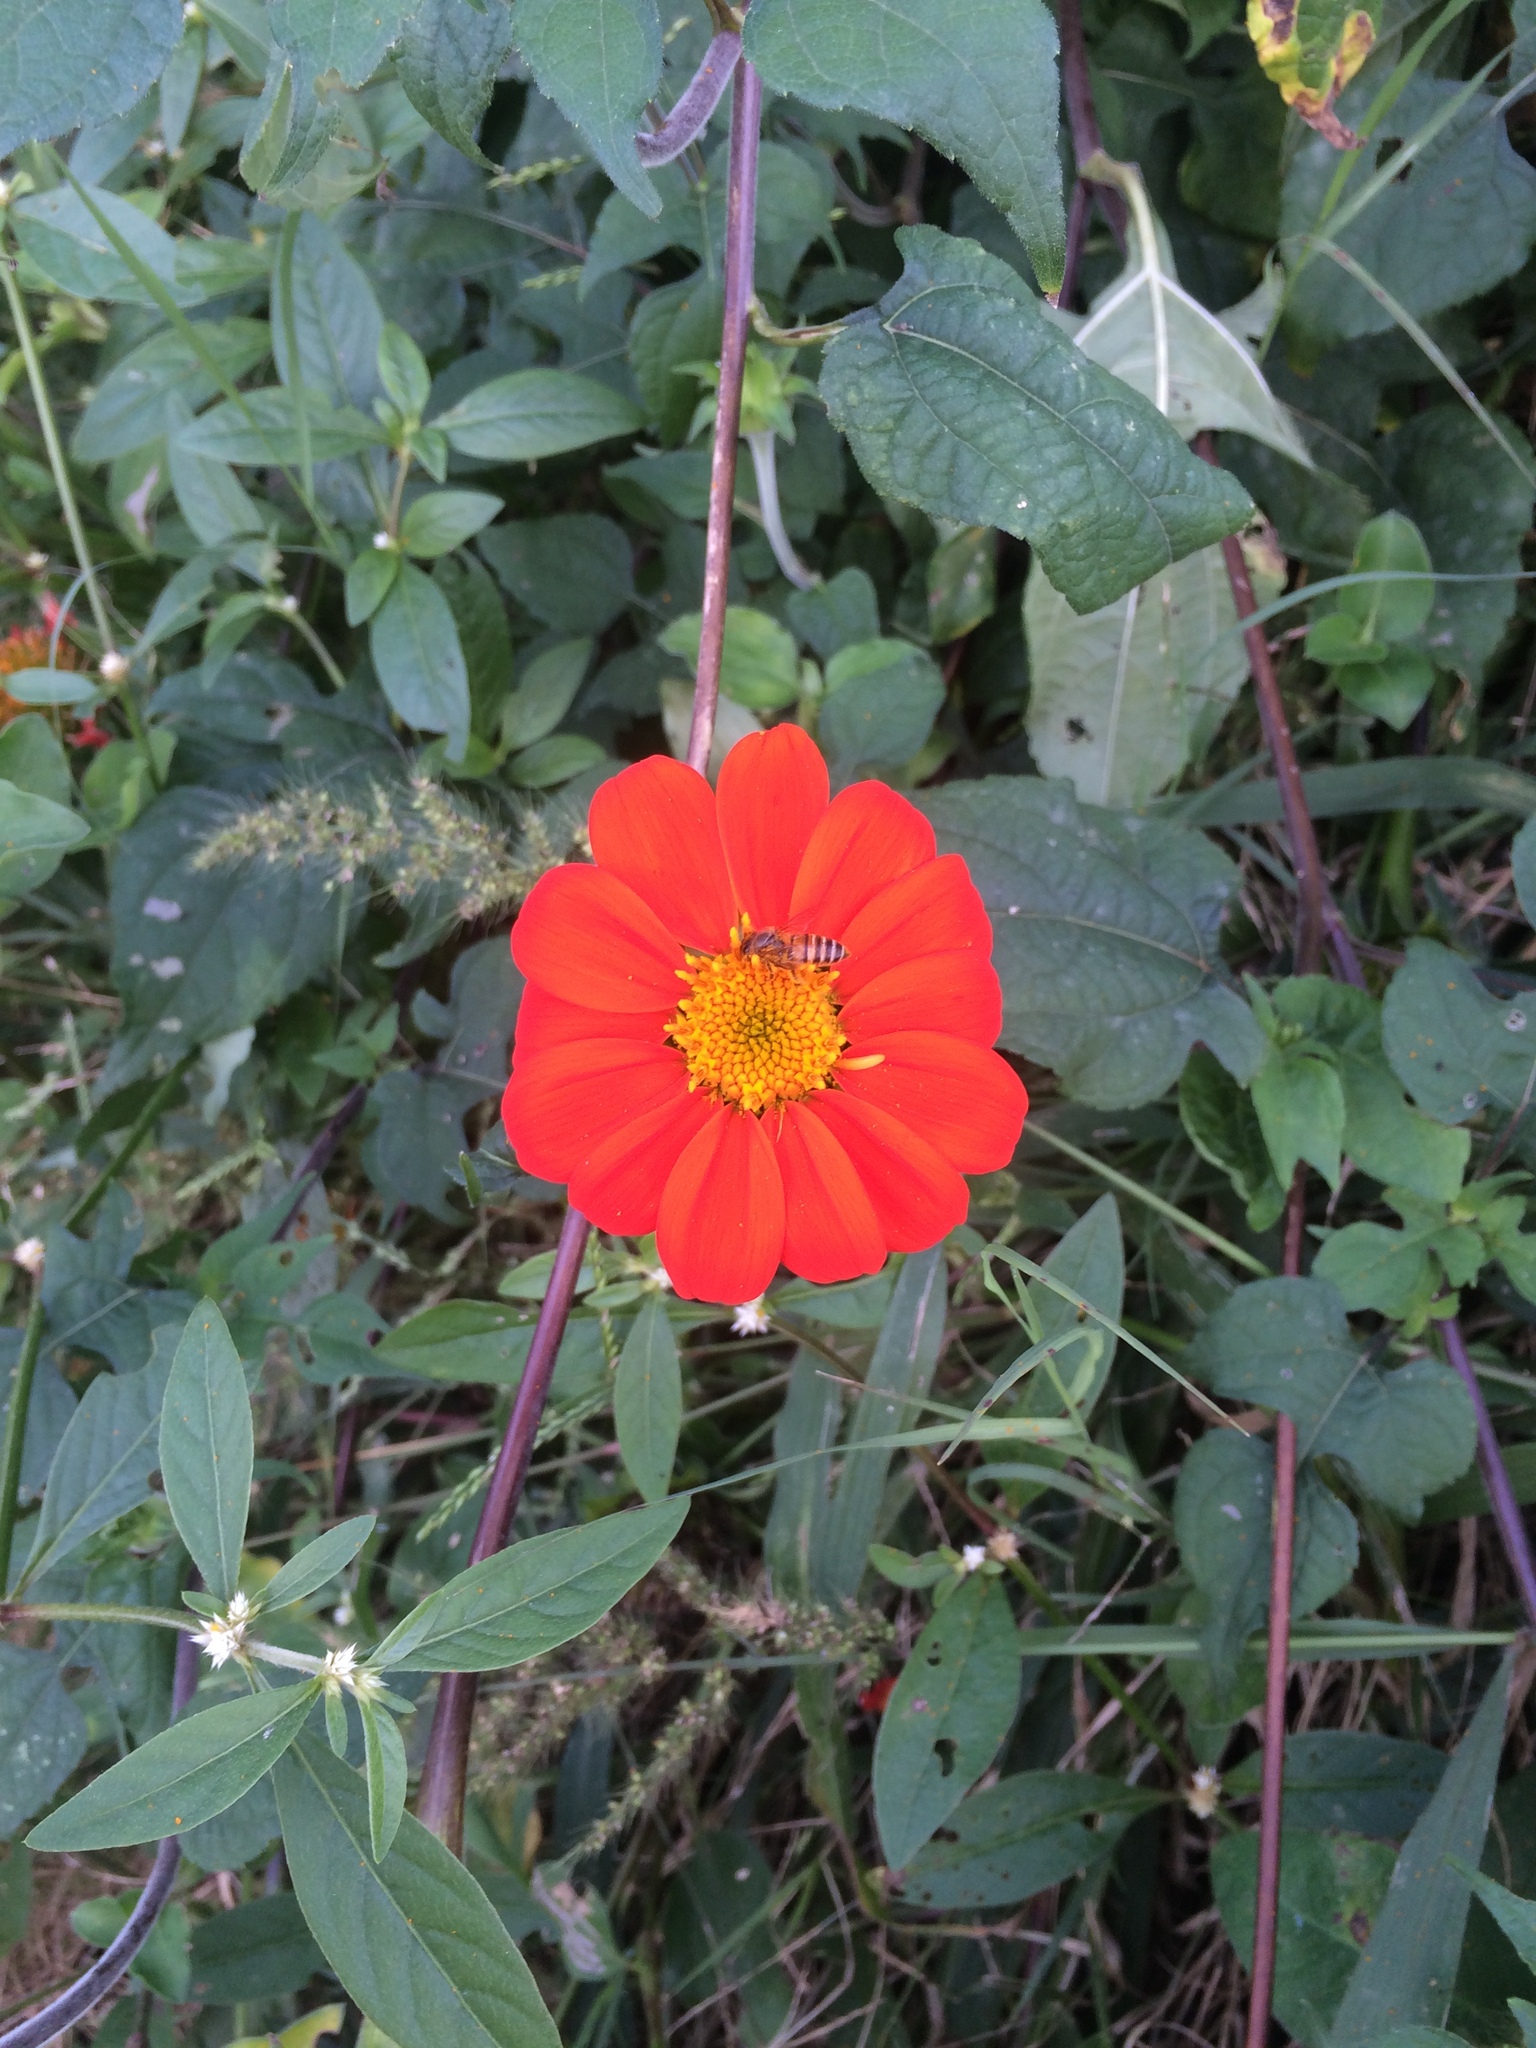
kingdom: Animalia
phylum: Arthropoda
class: Insecta
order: Hymenoptera
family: Apidae
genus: Apis
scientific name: Apis cerana
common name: Honey bee
